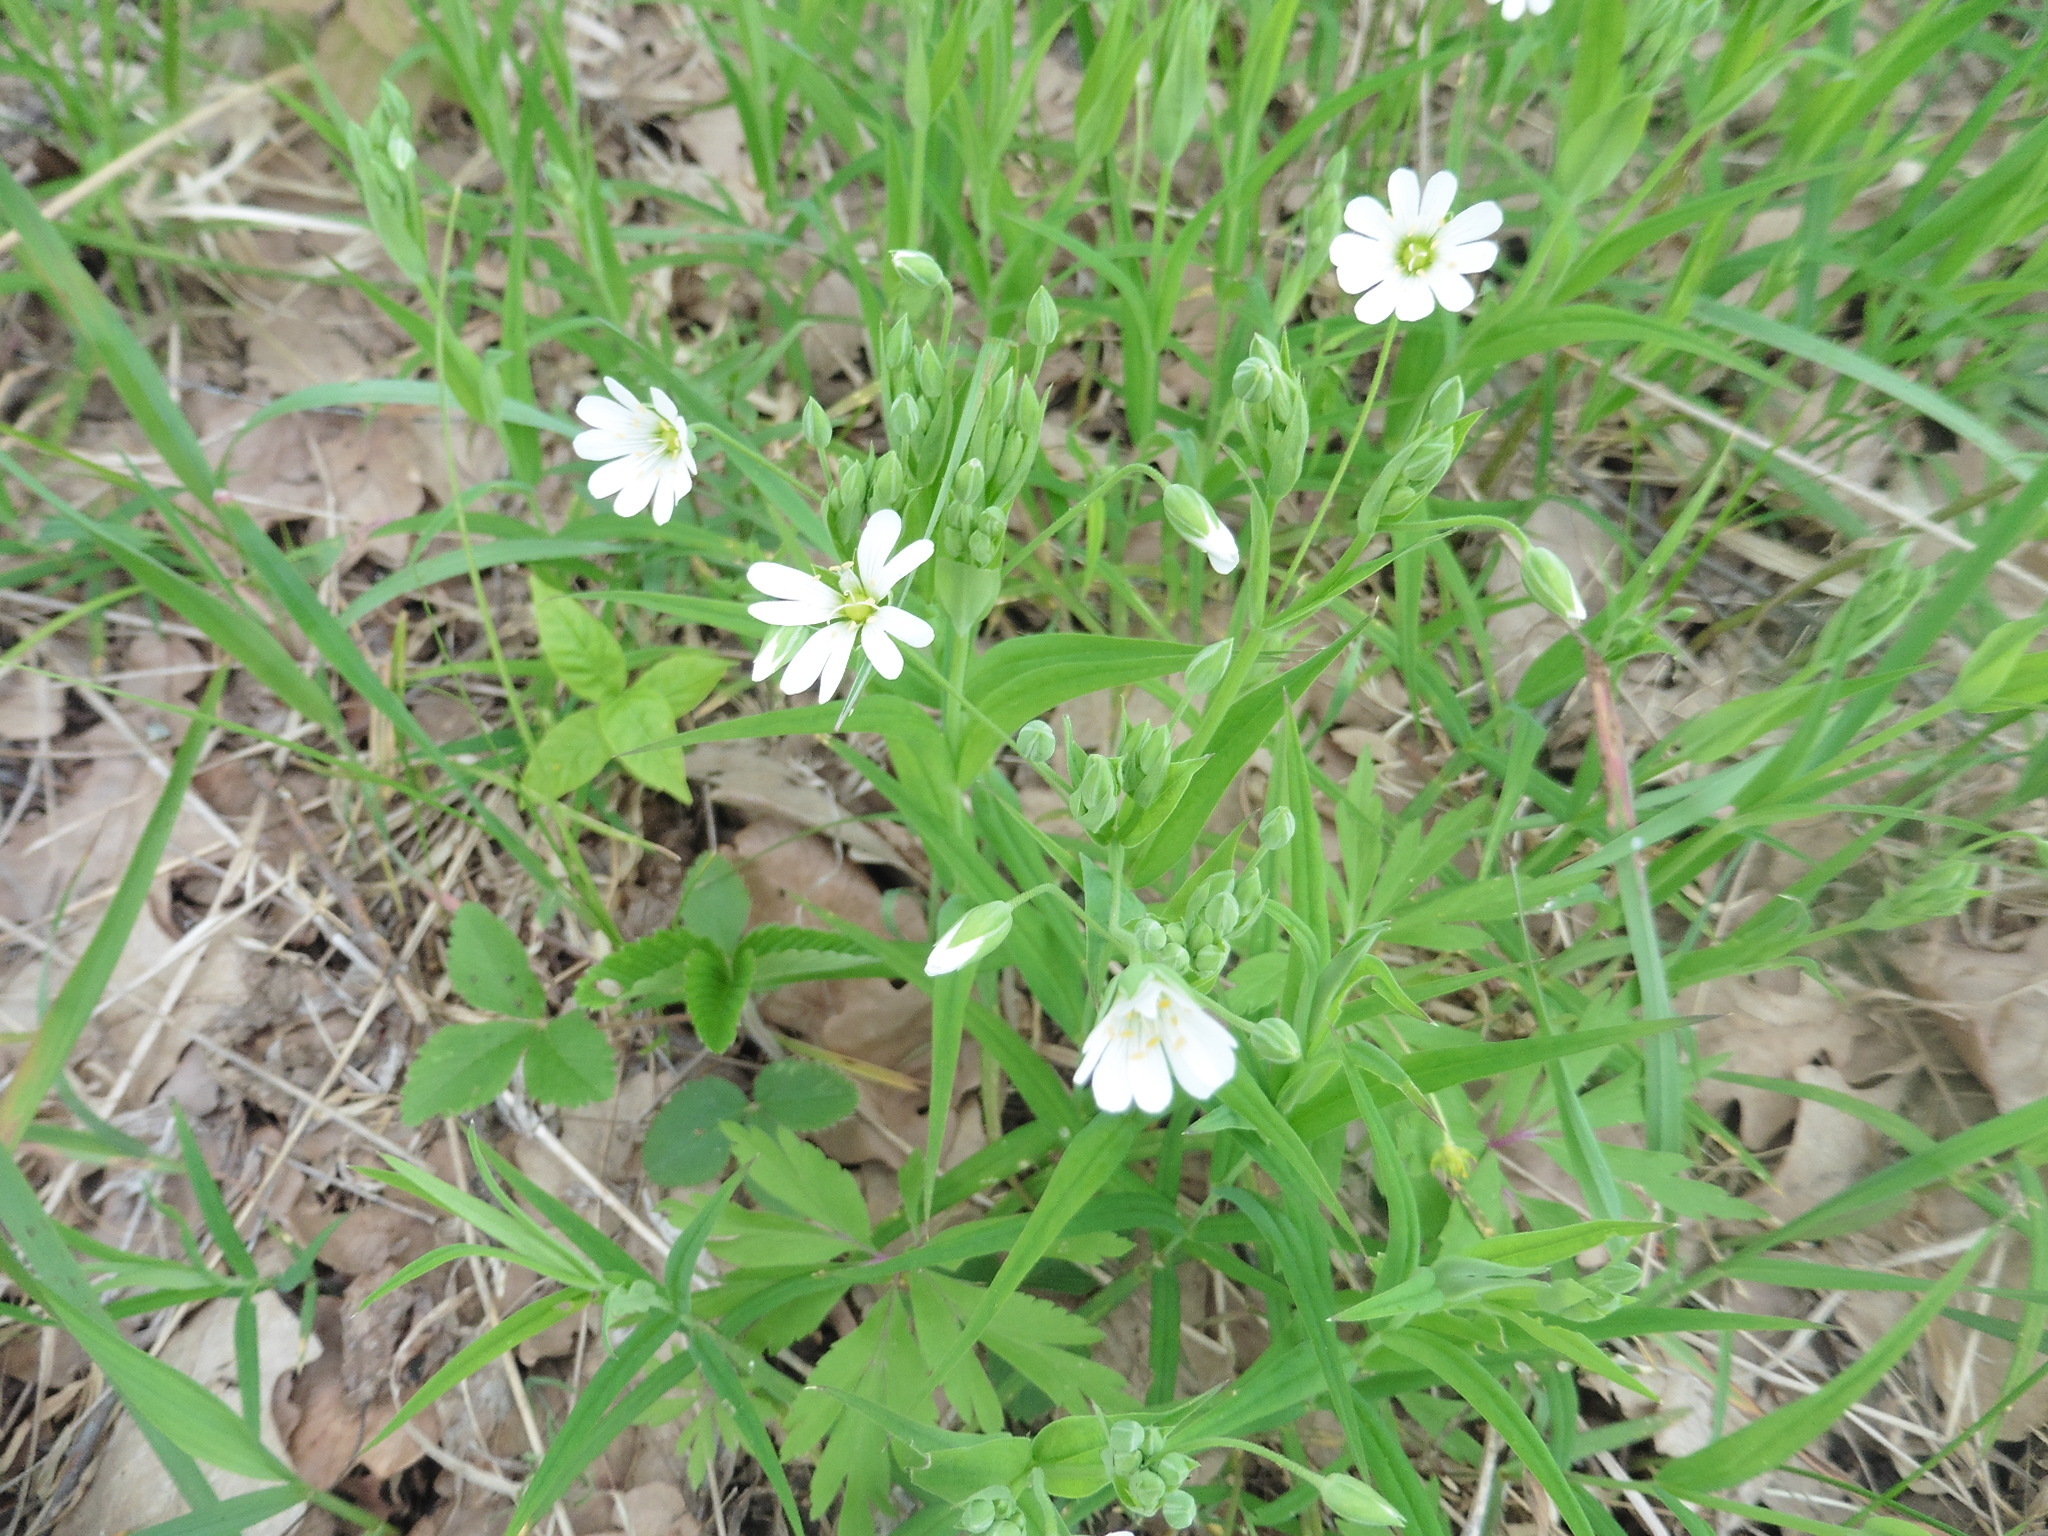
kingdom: Plantae
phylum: Tracheophyta
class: Magnoliopsida
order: Caryophyllales
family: Caryophyllaceae
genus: Rabelera
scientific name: Rabelera holostea
